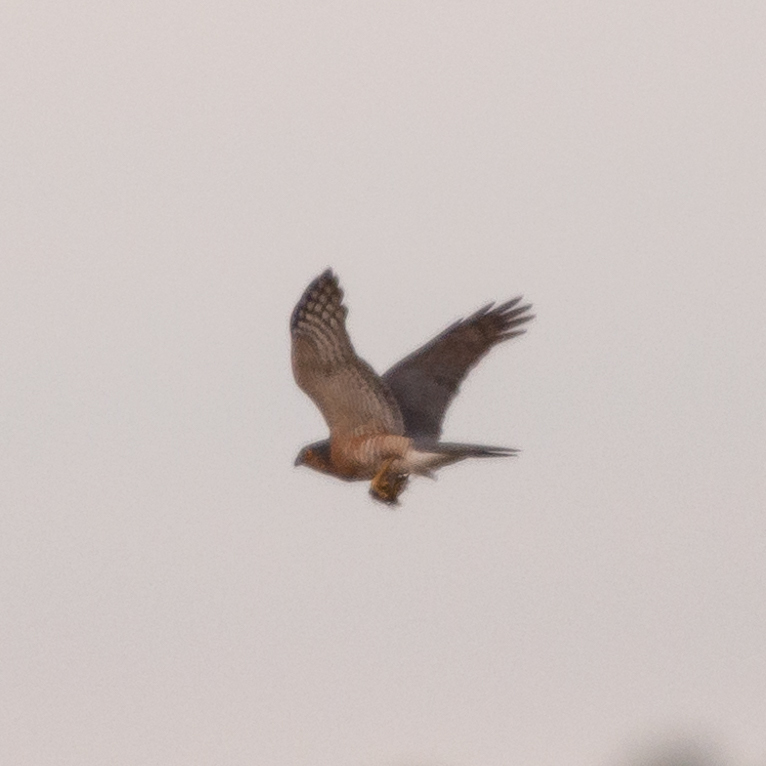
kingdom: Animalia
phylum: Chordata
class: Aves
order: Accipitriformes
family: Accipitridae
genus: Accipiter
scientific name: Accipiter nisus
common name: Eurasian sparrowhawk
